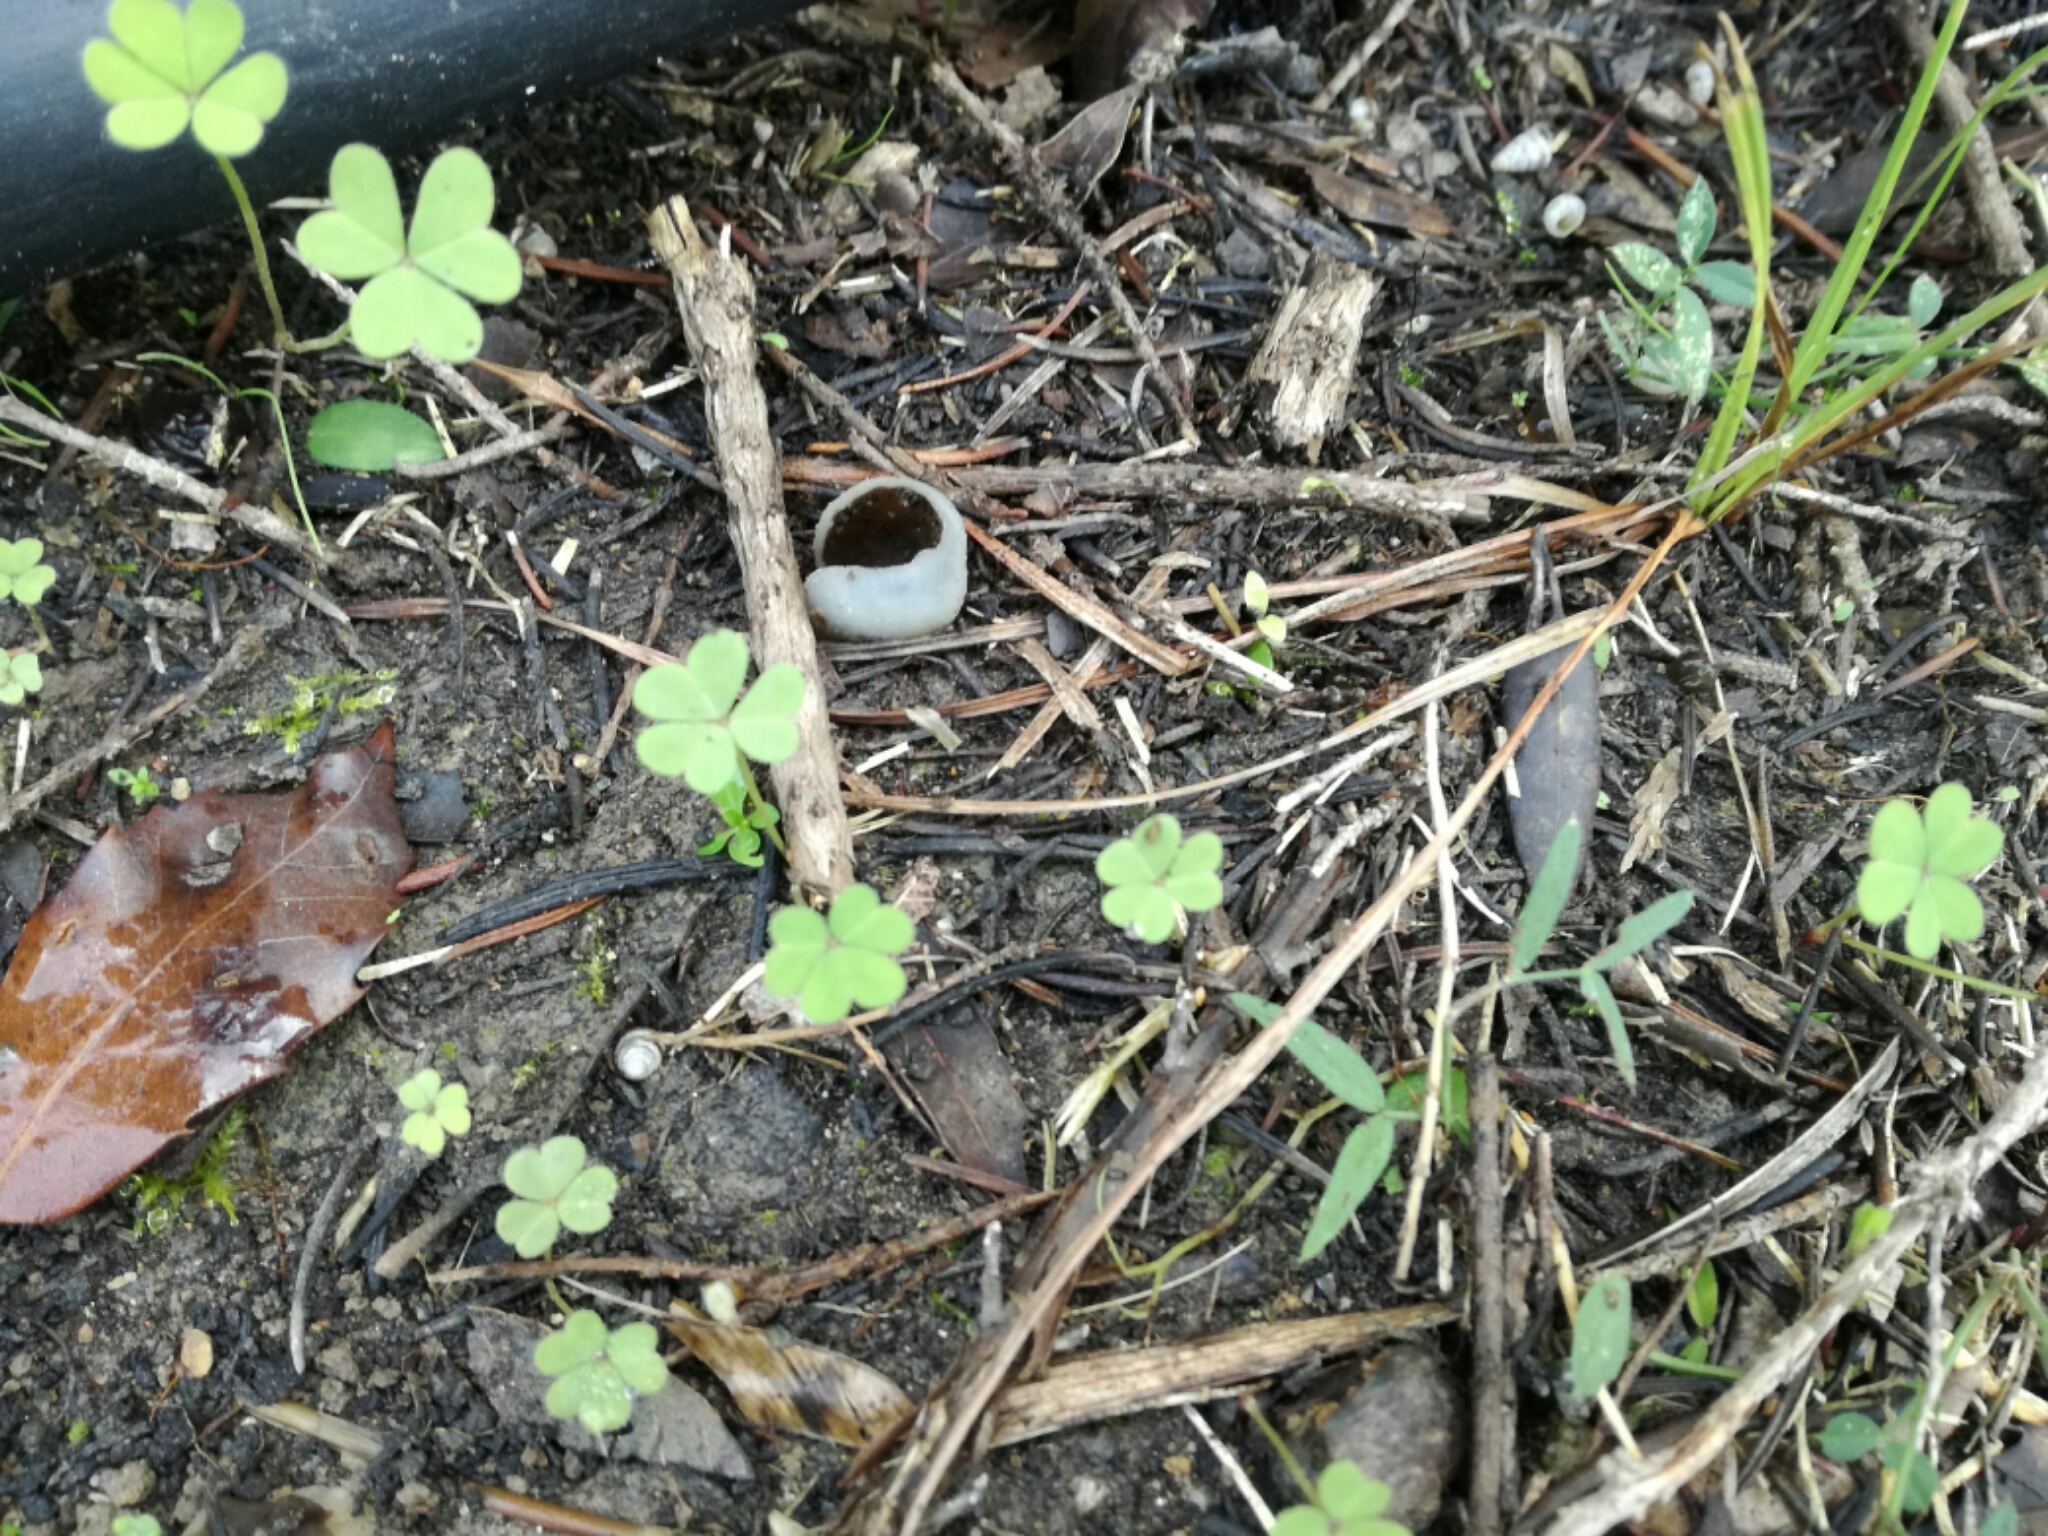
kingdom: Fungi
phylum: Ascomycota
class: Pezizomycetes
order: Pezizales
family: Pezizaceae
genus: Paragalactinia
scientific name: Paragalactinia succosa
